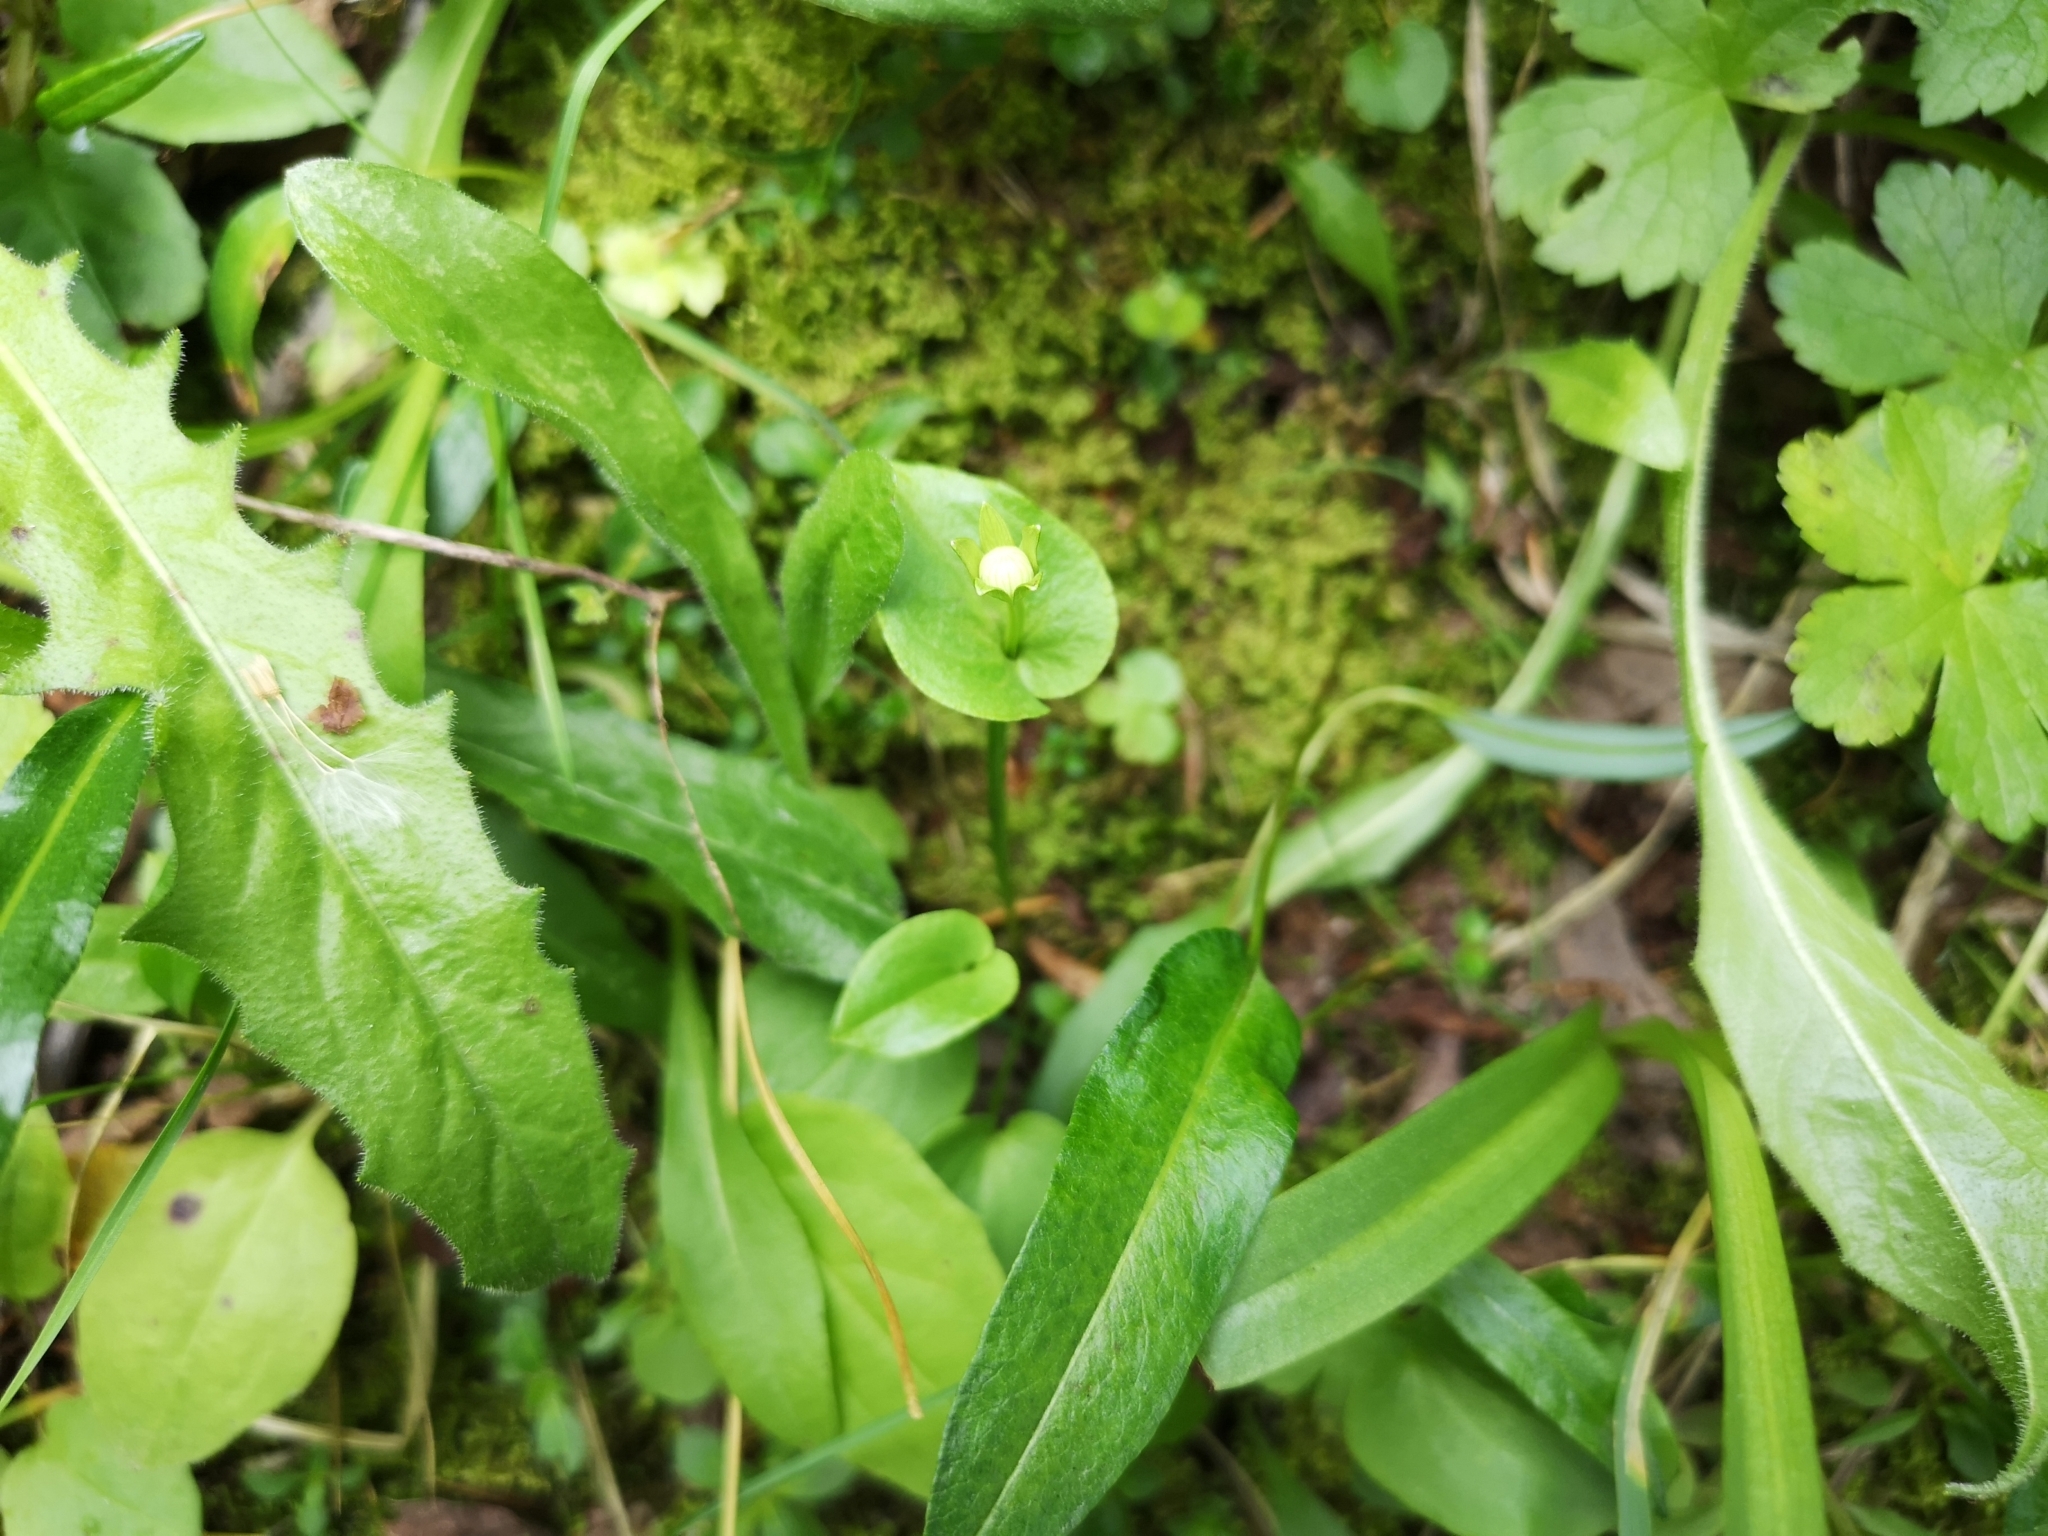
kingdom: Plantae
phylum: Tracheophyta
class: Magnoliopsida
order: Celastrales
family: Parnassiaceae
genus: Parnassia
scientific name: Parnassia palustris
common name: Grass-of-parnassus
